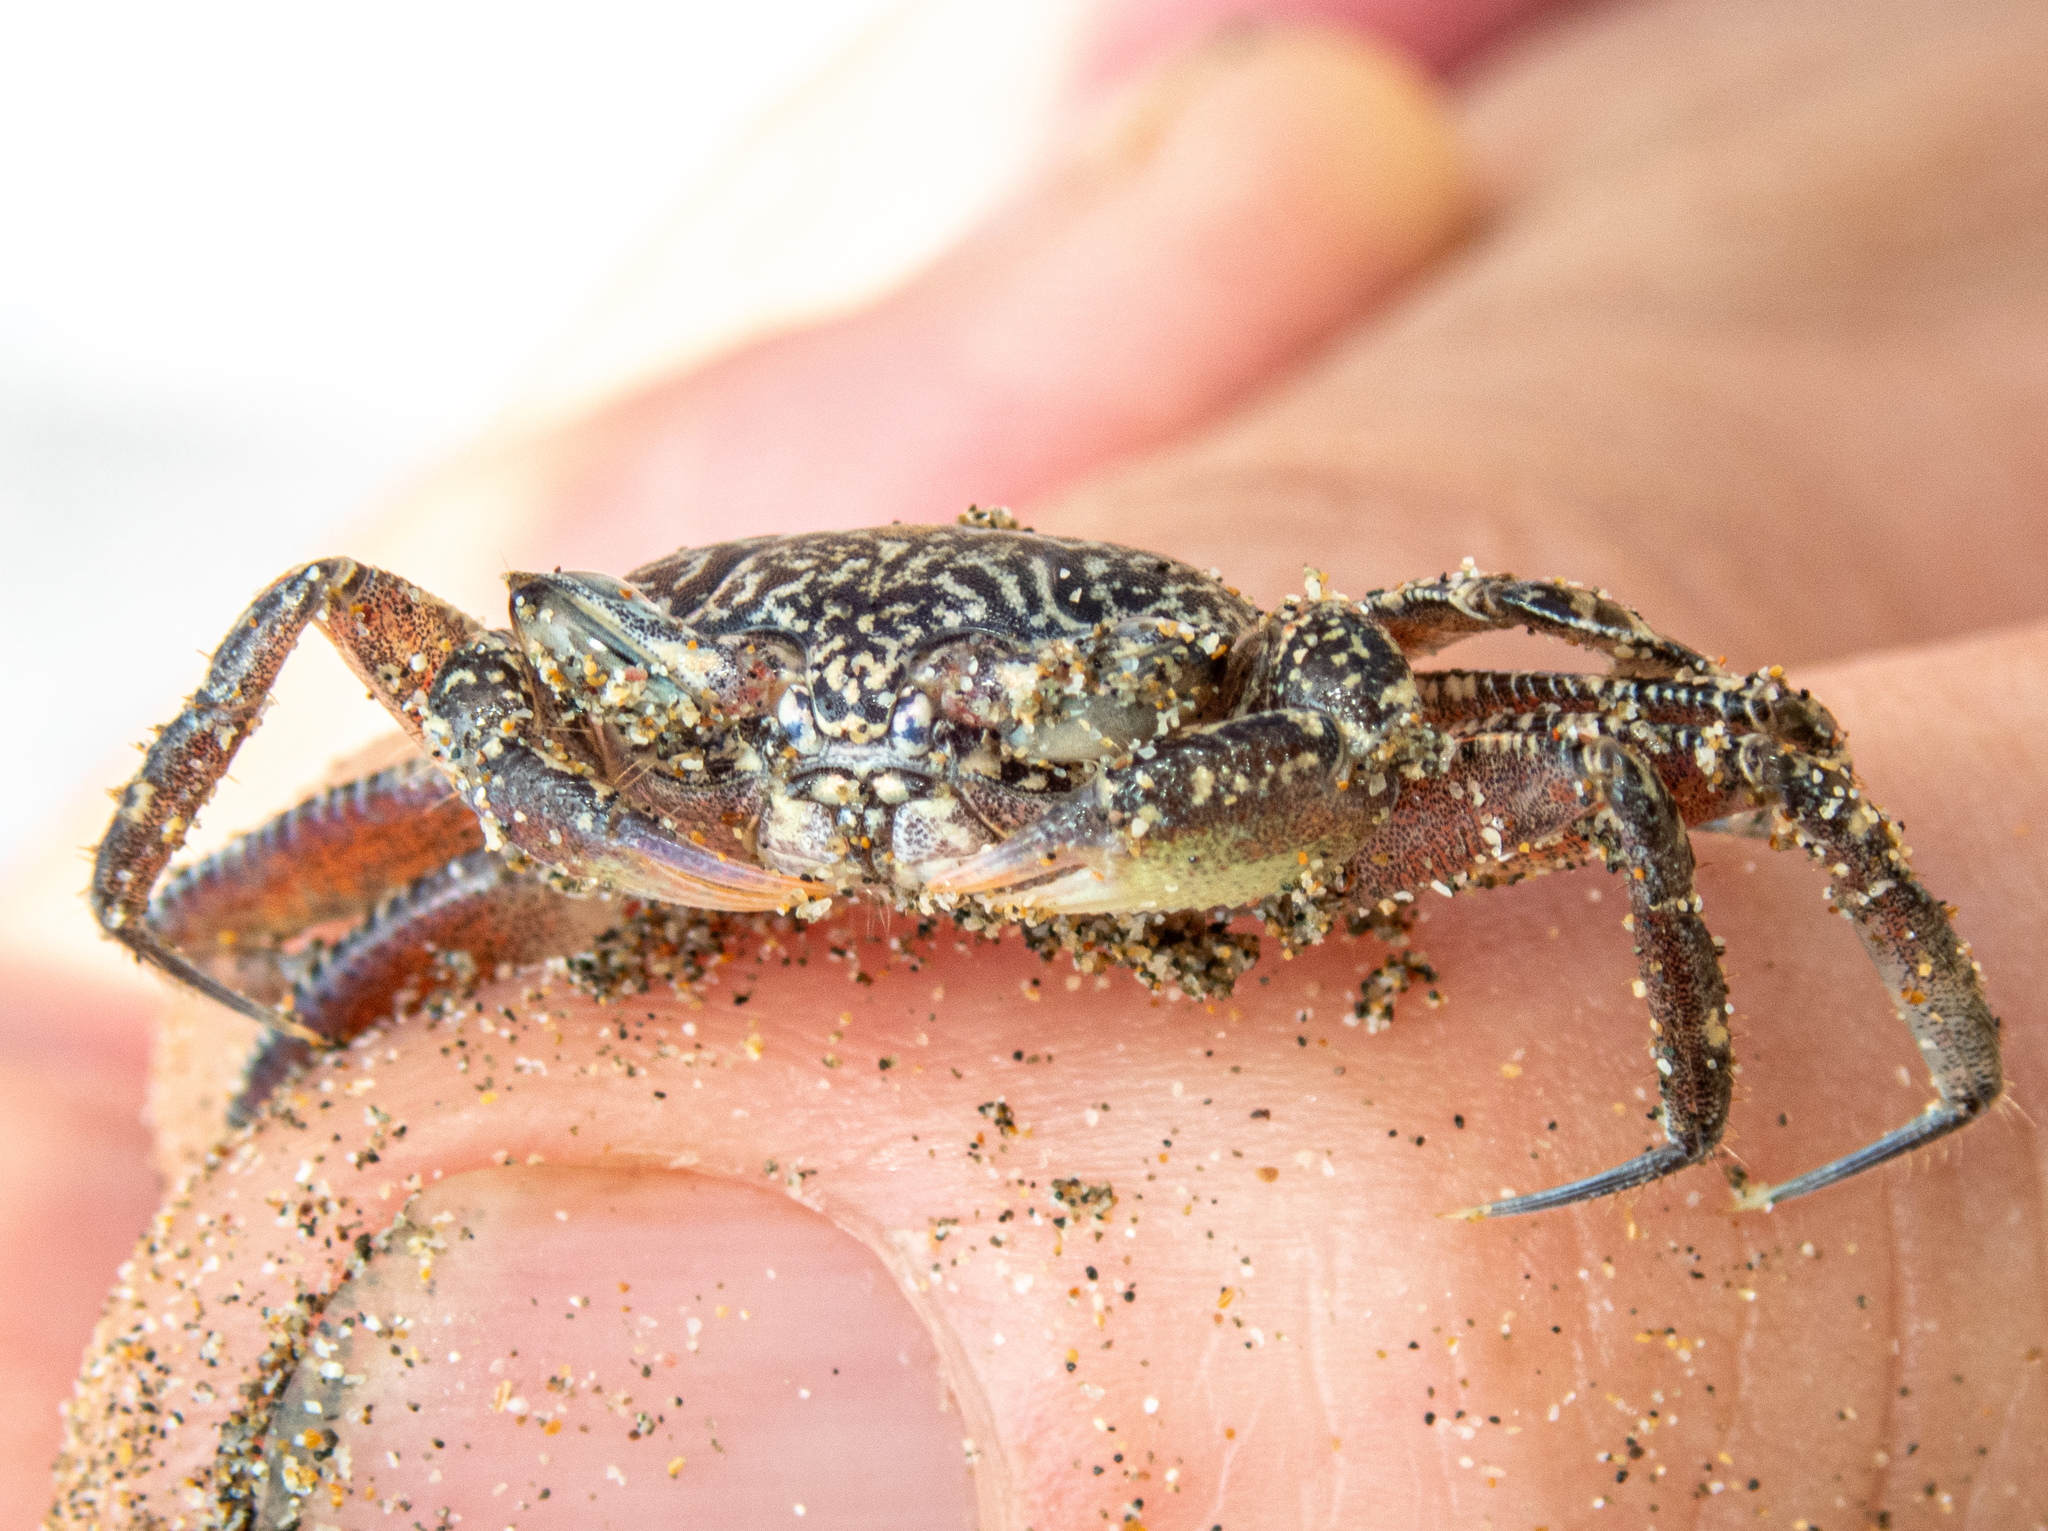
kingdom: Animalia
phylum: Arthropoda
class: Malacostraca
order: Decapoda
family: Ocypodidae
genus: Ocypode
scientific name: Ocypode gaudichaudii
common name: Pacific ghost crab
